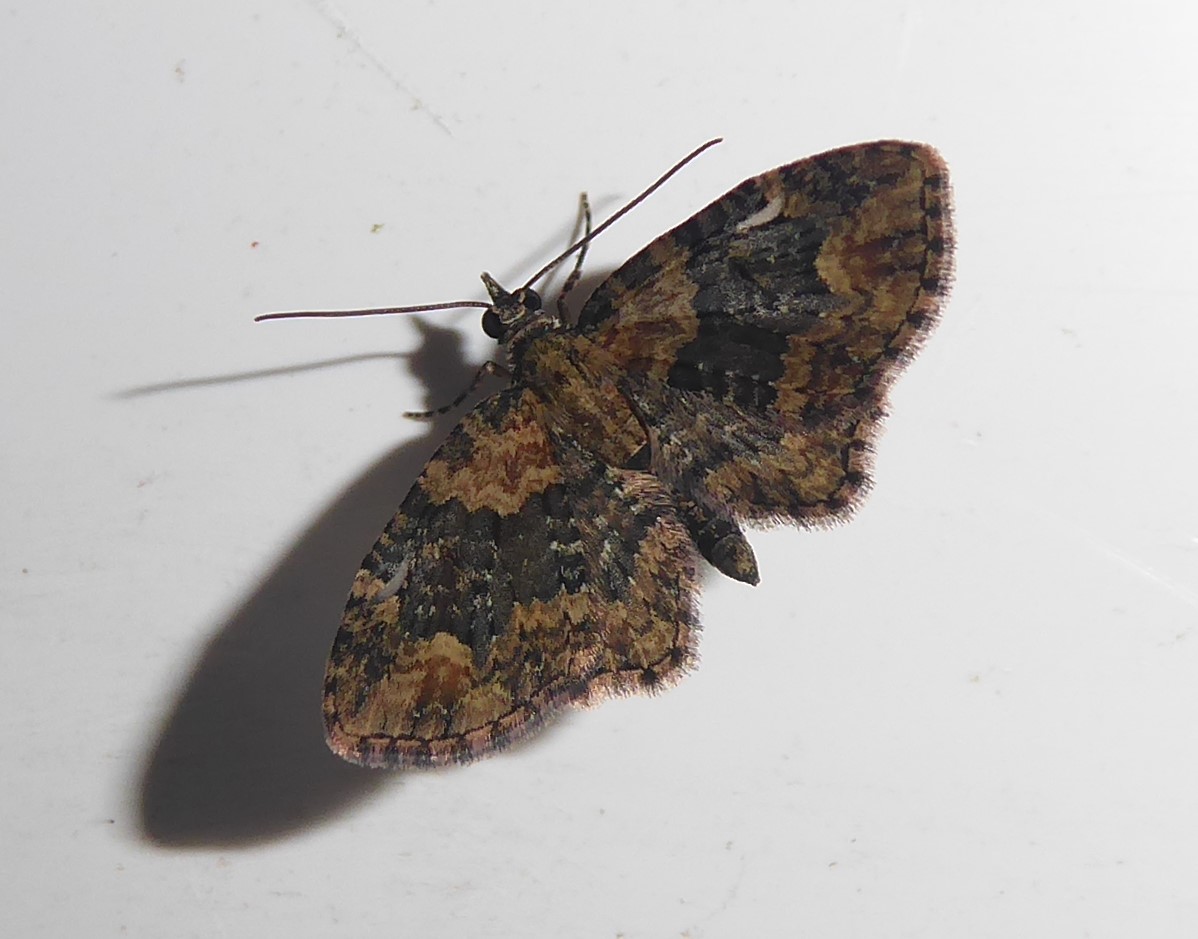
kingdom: Animalia
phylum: Arthropoda
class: Insecta
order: Lepidoptera
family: Geometridae
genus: Pasiphilodes
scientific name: Pasiphilodes testulata
